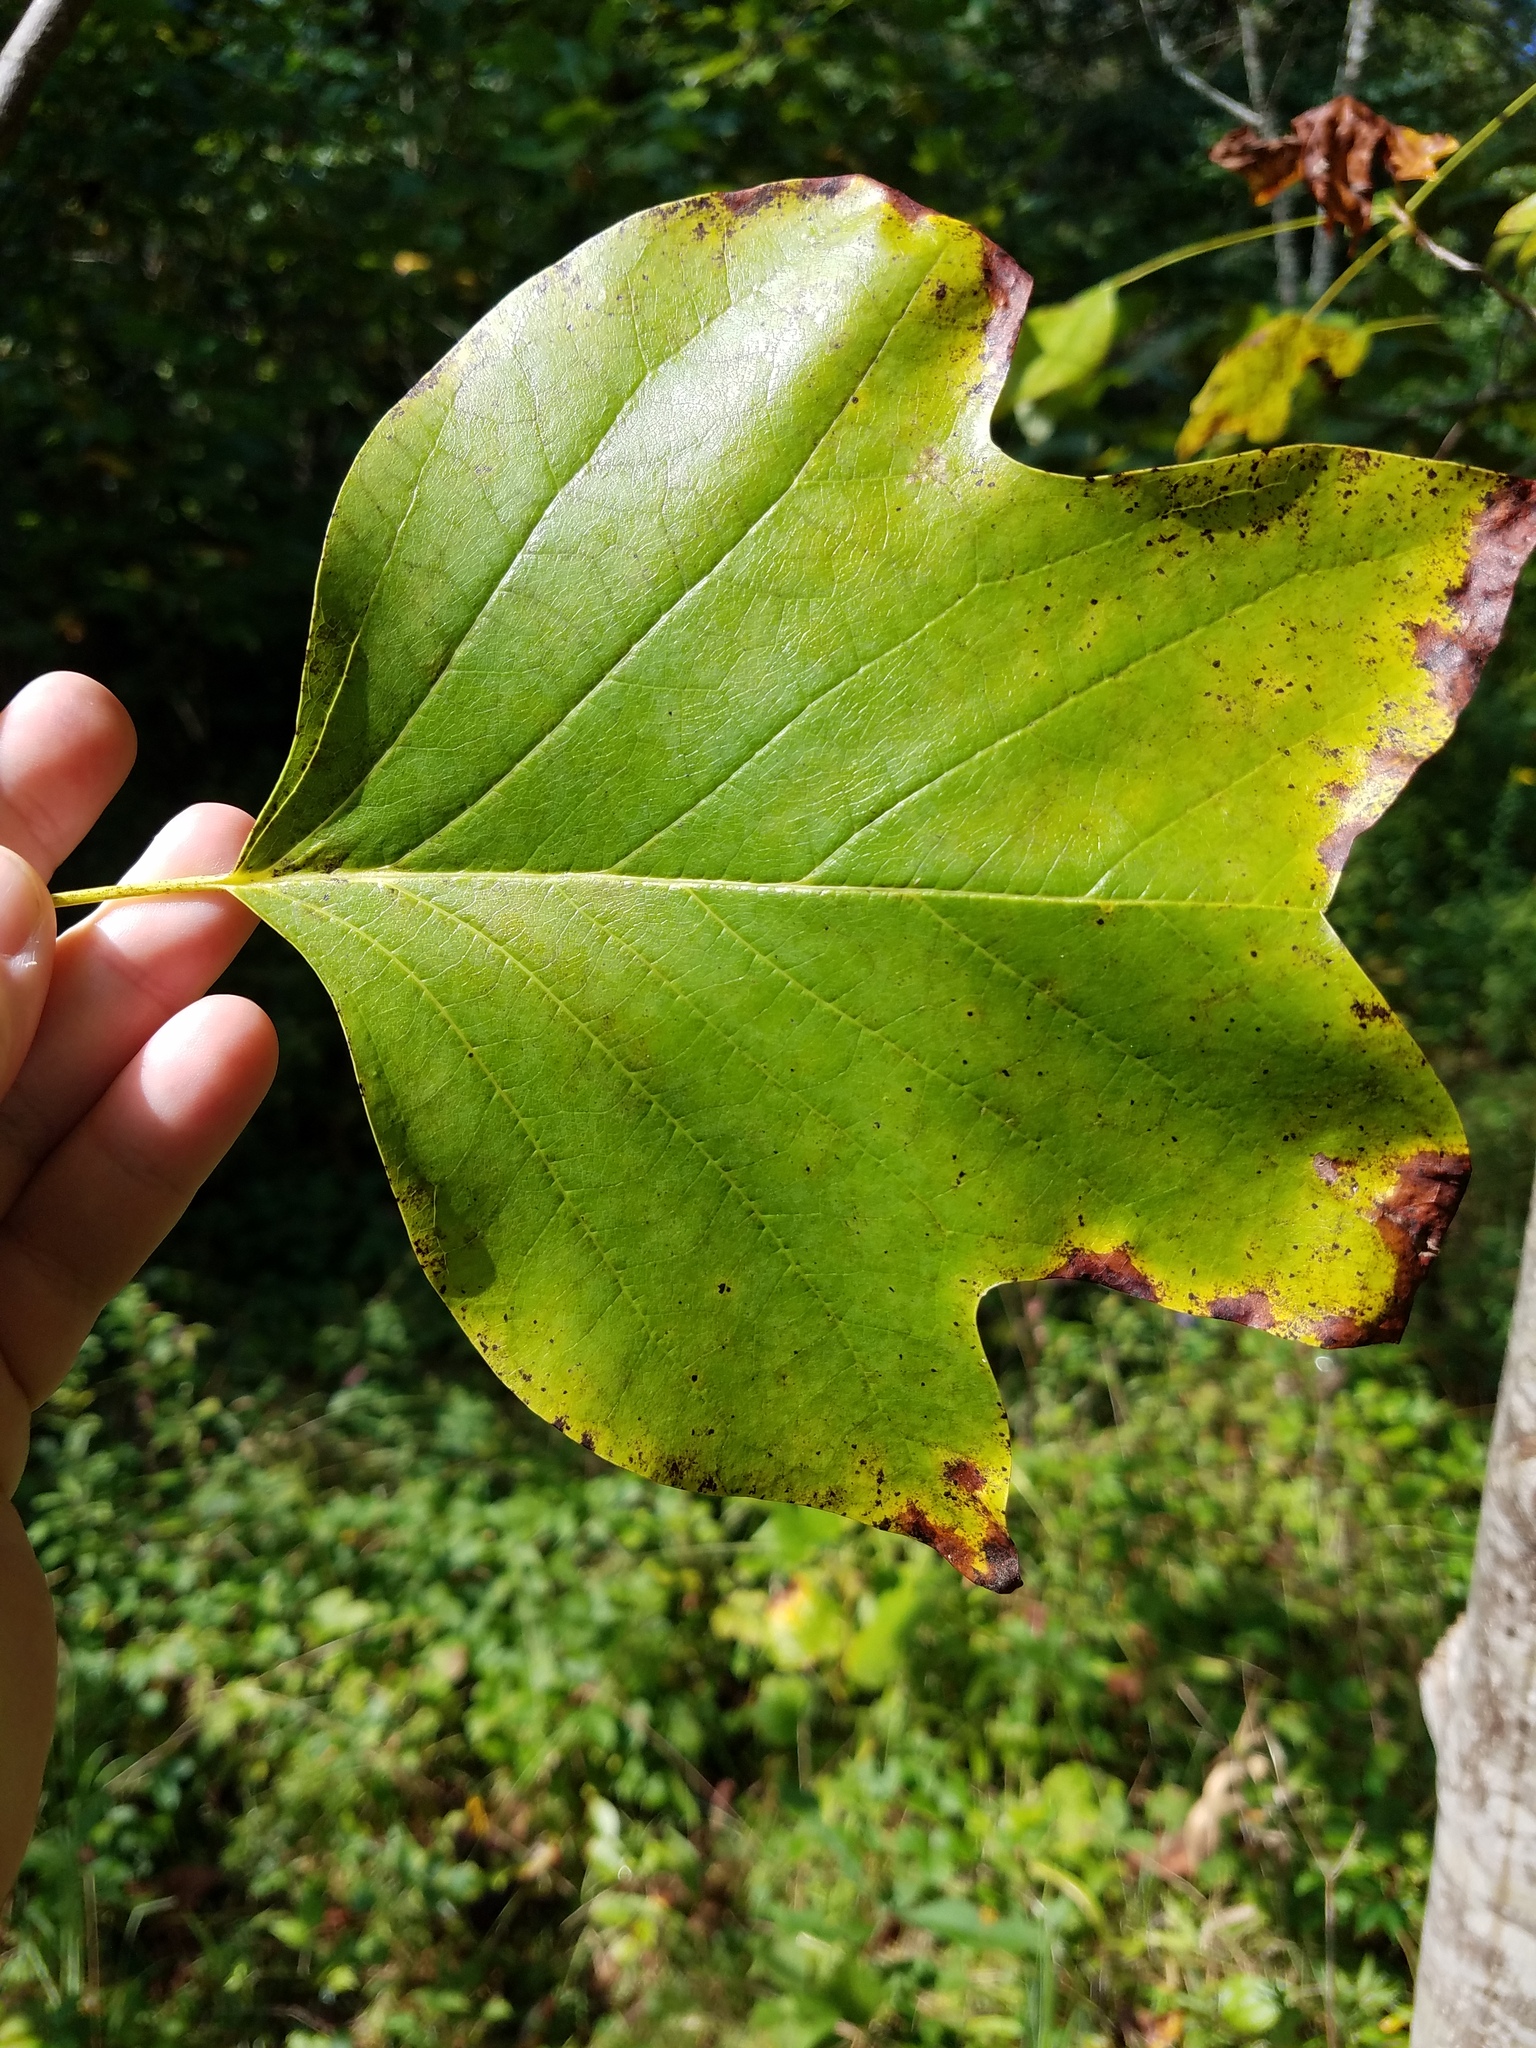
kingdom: Plantae
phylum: Tracheophyta
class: Magnoliopsida
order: Magnoliales
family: Magnoliaceae
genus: Liriodendron
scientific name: Liriodendron tulipifera
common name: Tulip tree
